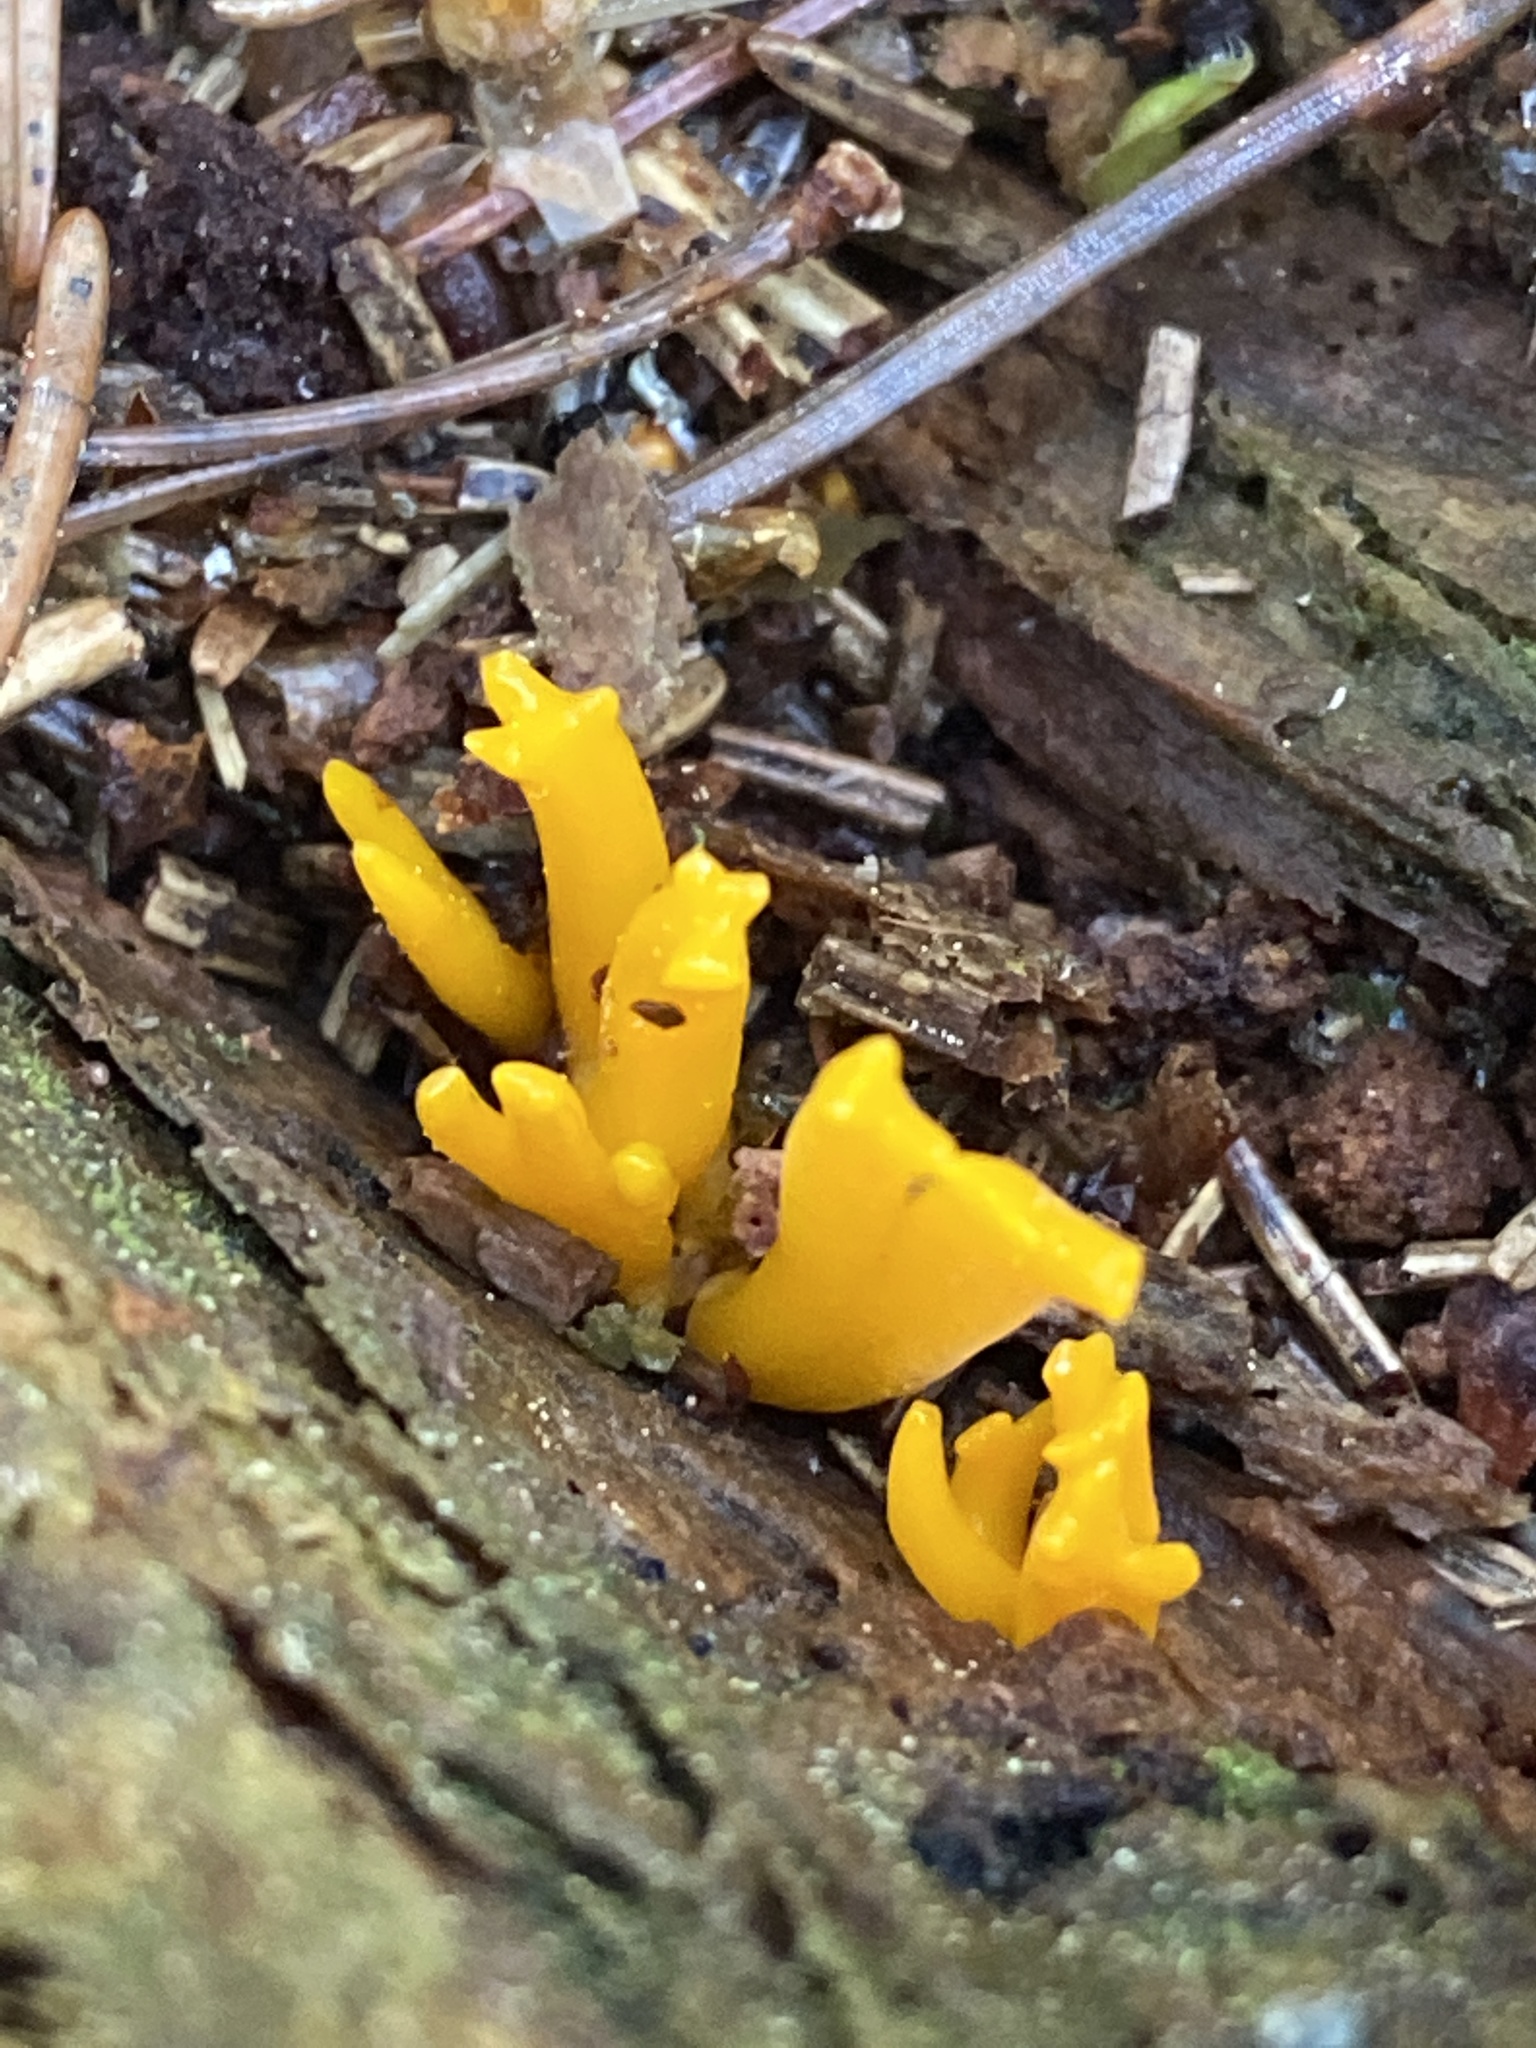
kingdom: Fungi
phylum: Basidiomycota
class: Dacrymycetes
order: Dacrymycetales
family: Dacrymycetaceae
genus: Calocera
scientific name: Calocera viscosa
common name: Yellow stagshorn
